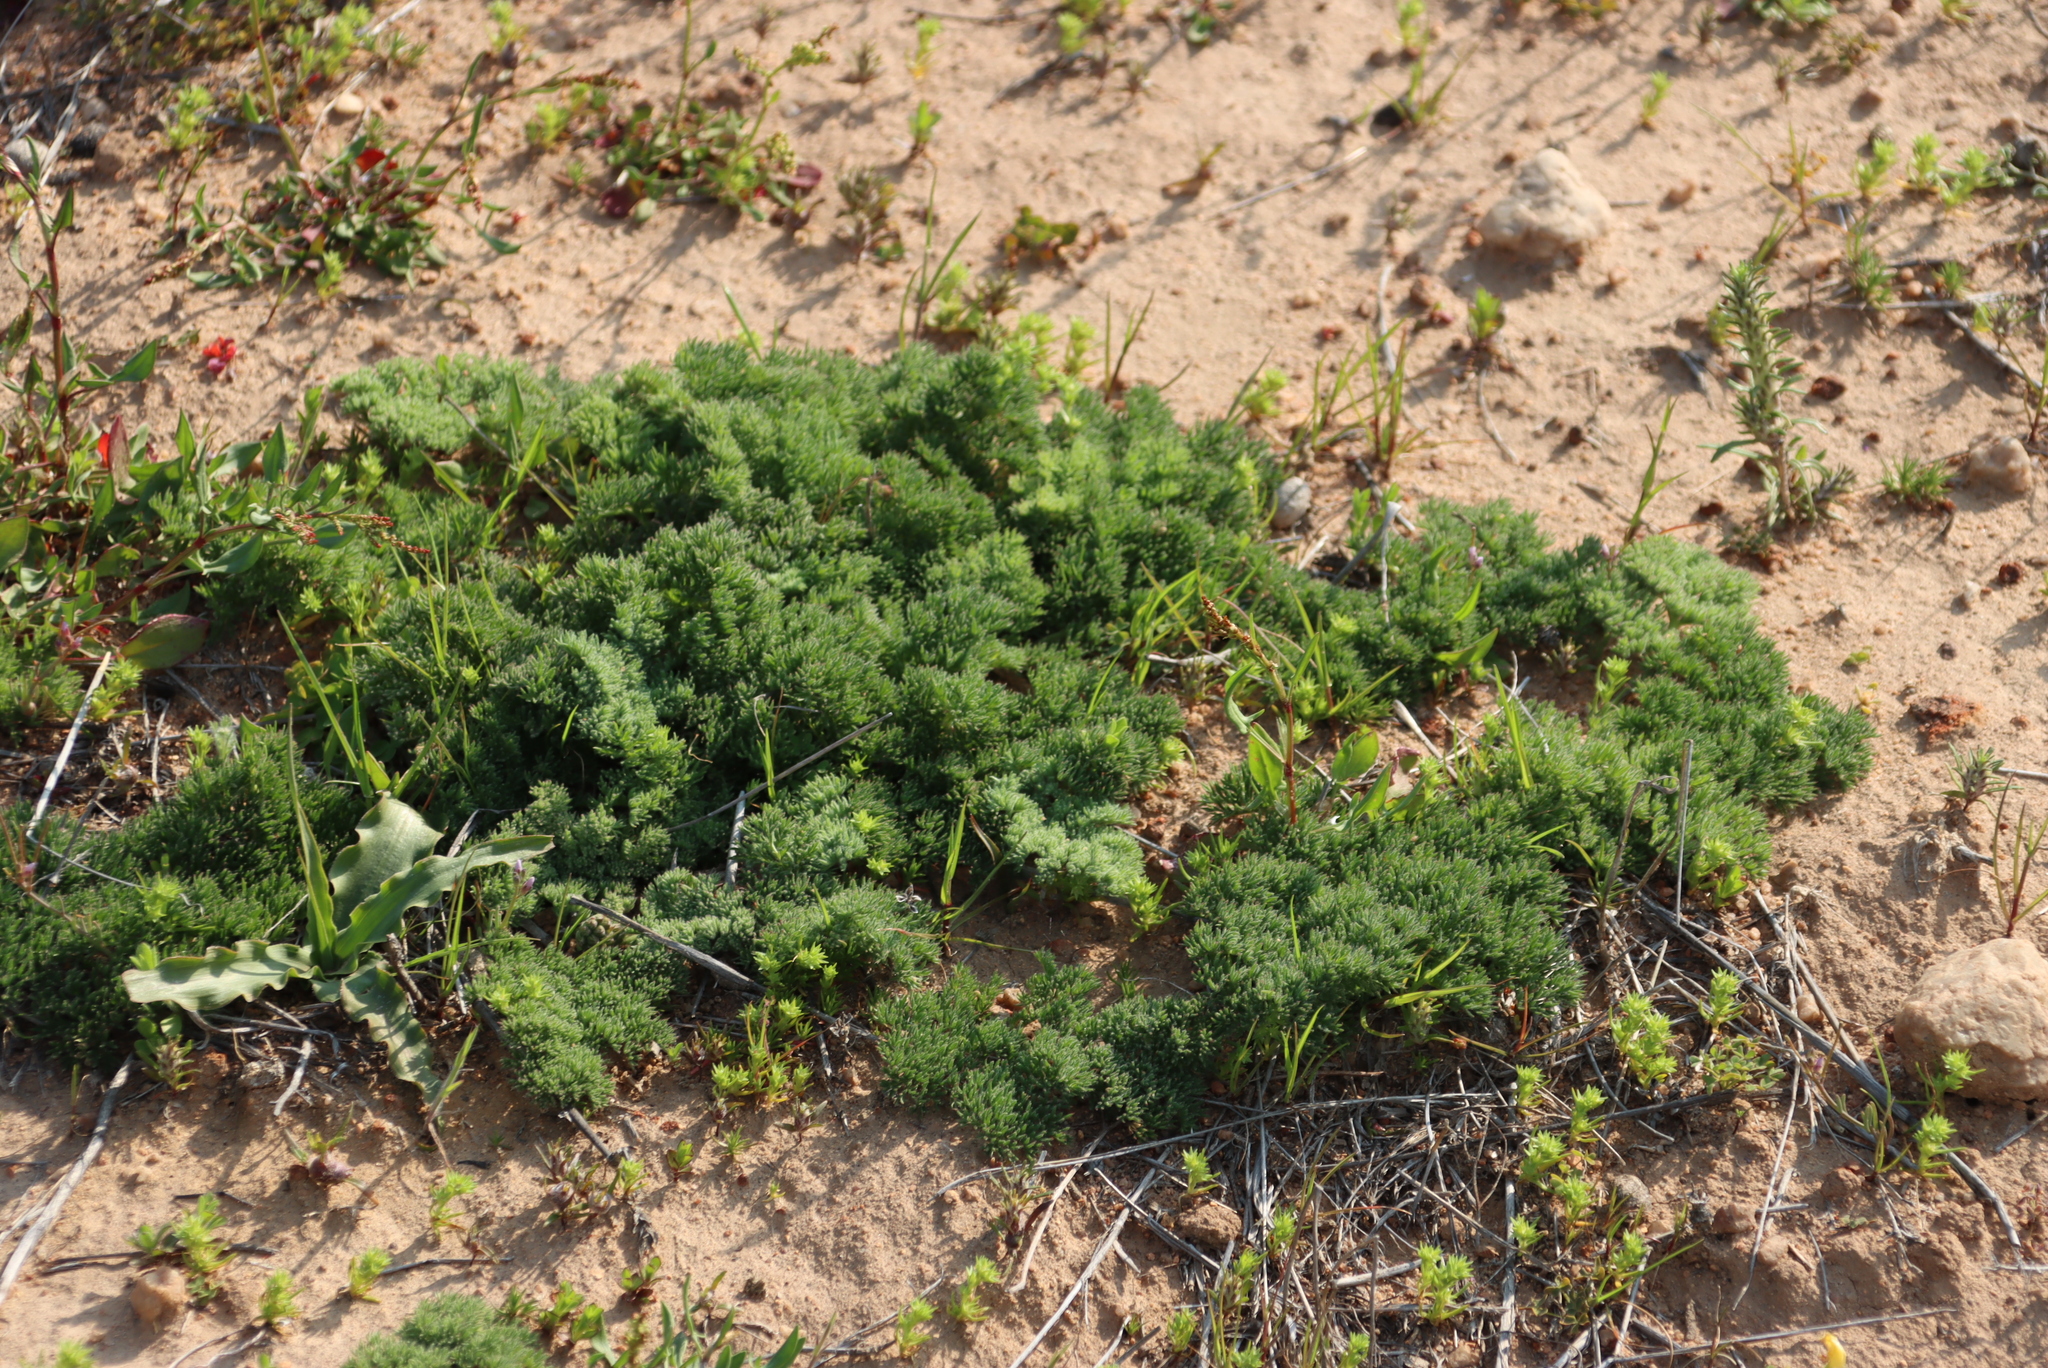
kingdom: Plantae
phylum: Tracheophyta
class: Magnoliopsida
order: Geraniales
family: Geraniaceae
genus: Pelargonium
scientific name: Pelargonium triste
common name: Night-scent pelargonium
